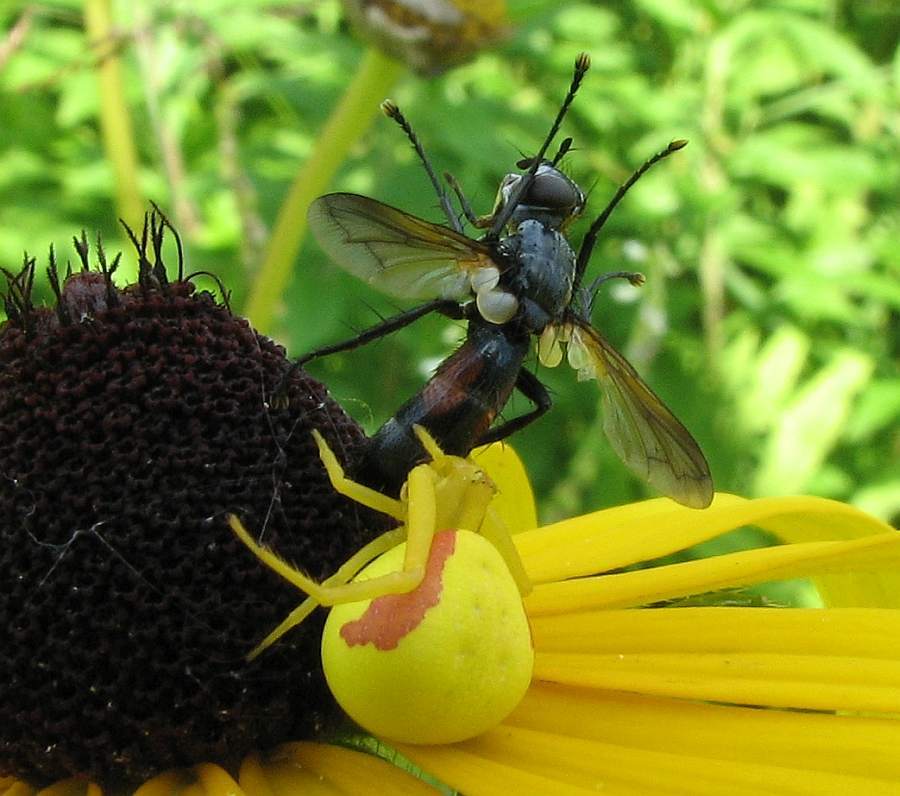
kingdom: Animalia
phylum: Arthropoda
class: Arachnida
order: Araneae
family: Thomisidae
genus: Misumena
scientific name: Misumena vatia
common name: Goldenrod crab spider
